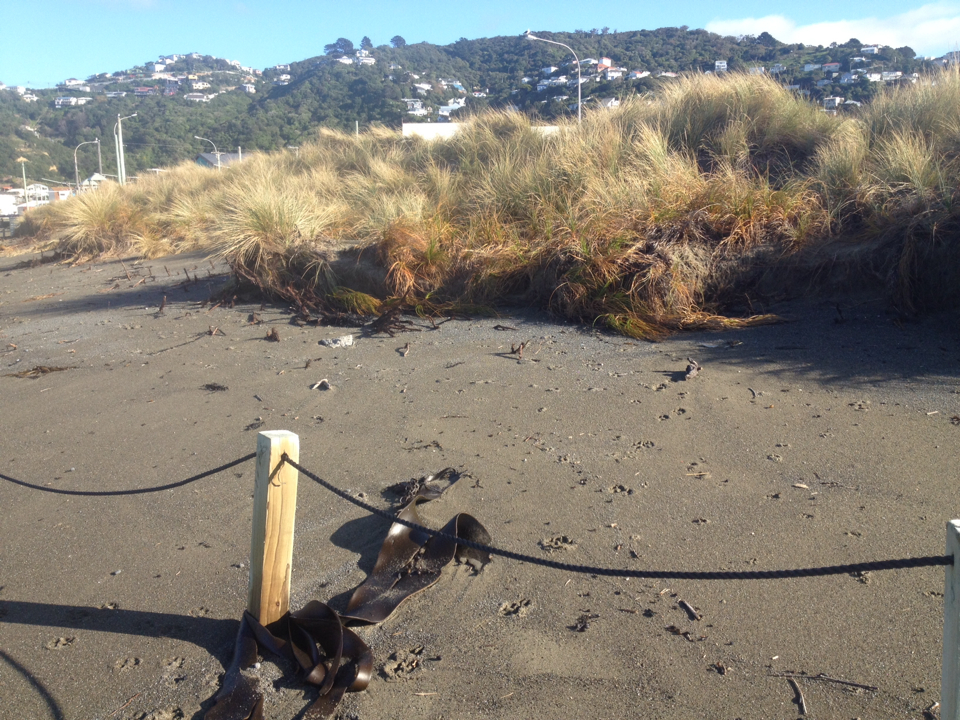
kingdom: Plantae
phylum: Tracheophyta
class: Liliopsida
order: Poales
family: Cyperaceae
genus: Ficinia
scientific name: Ficinia spiralis
